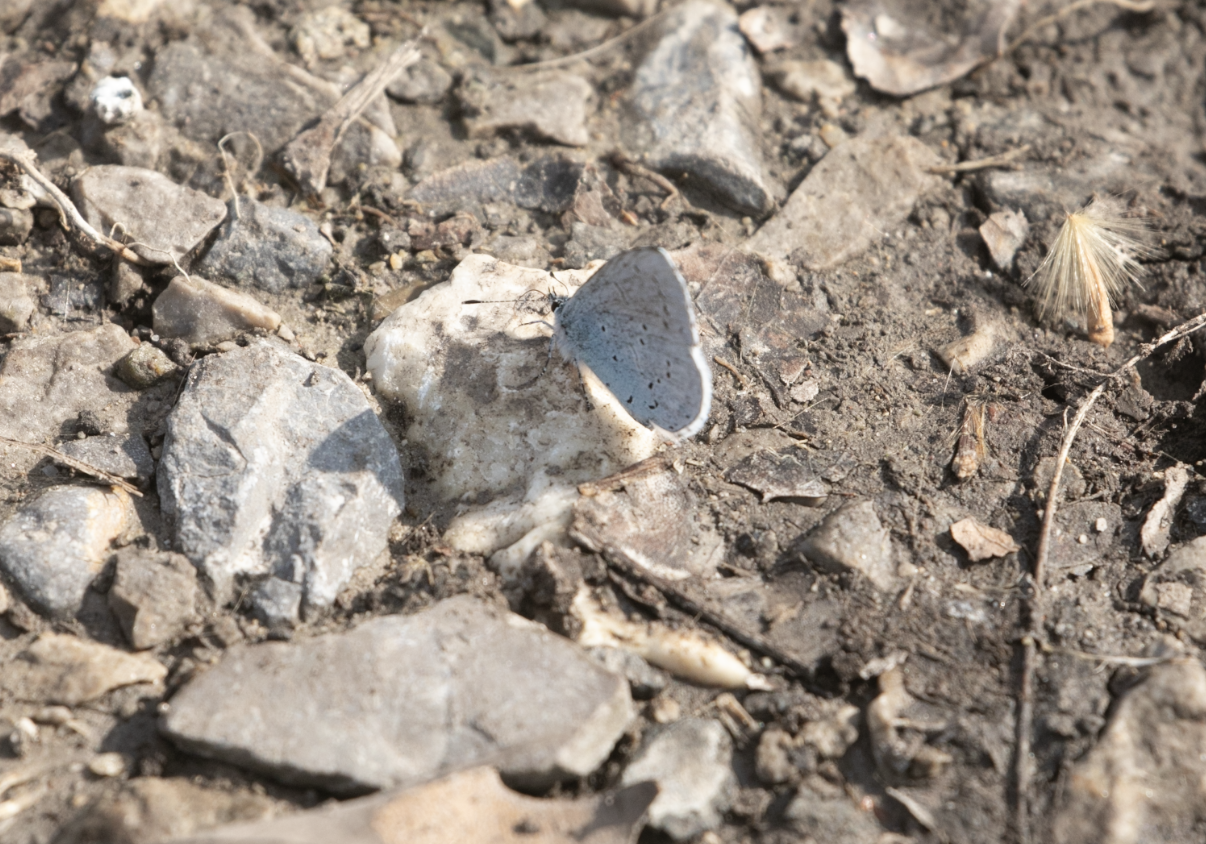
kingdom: Animalia
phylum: Arthropoda
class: Insecta
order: Lepidoptera
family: Lycaenidae
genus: Celastrina
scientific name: Celastrina argiolus
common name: Holly blue
